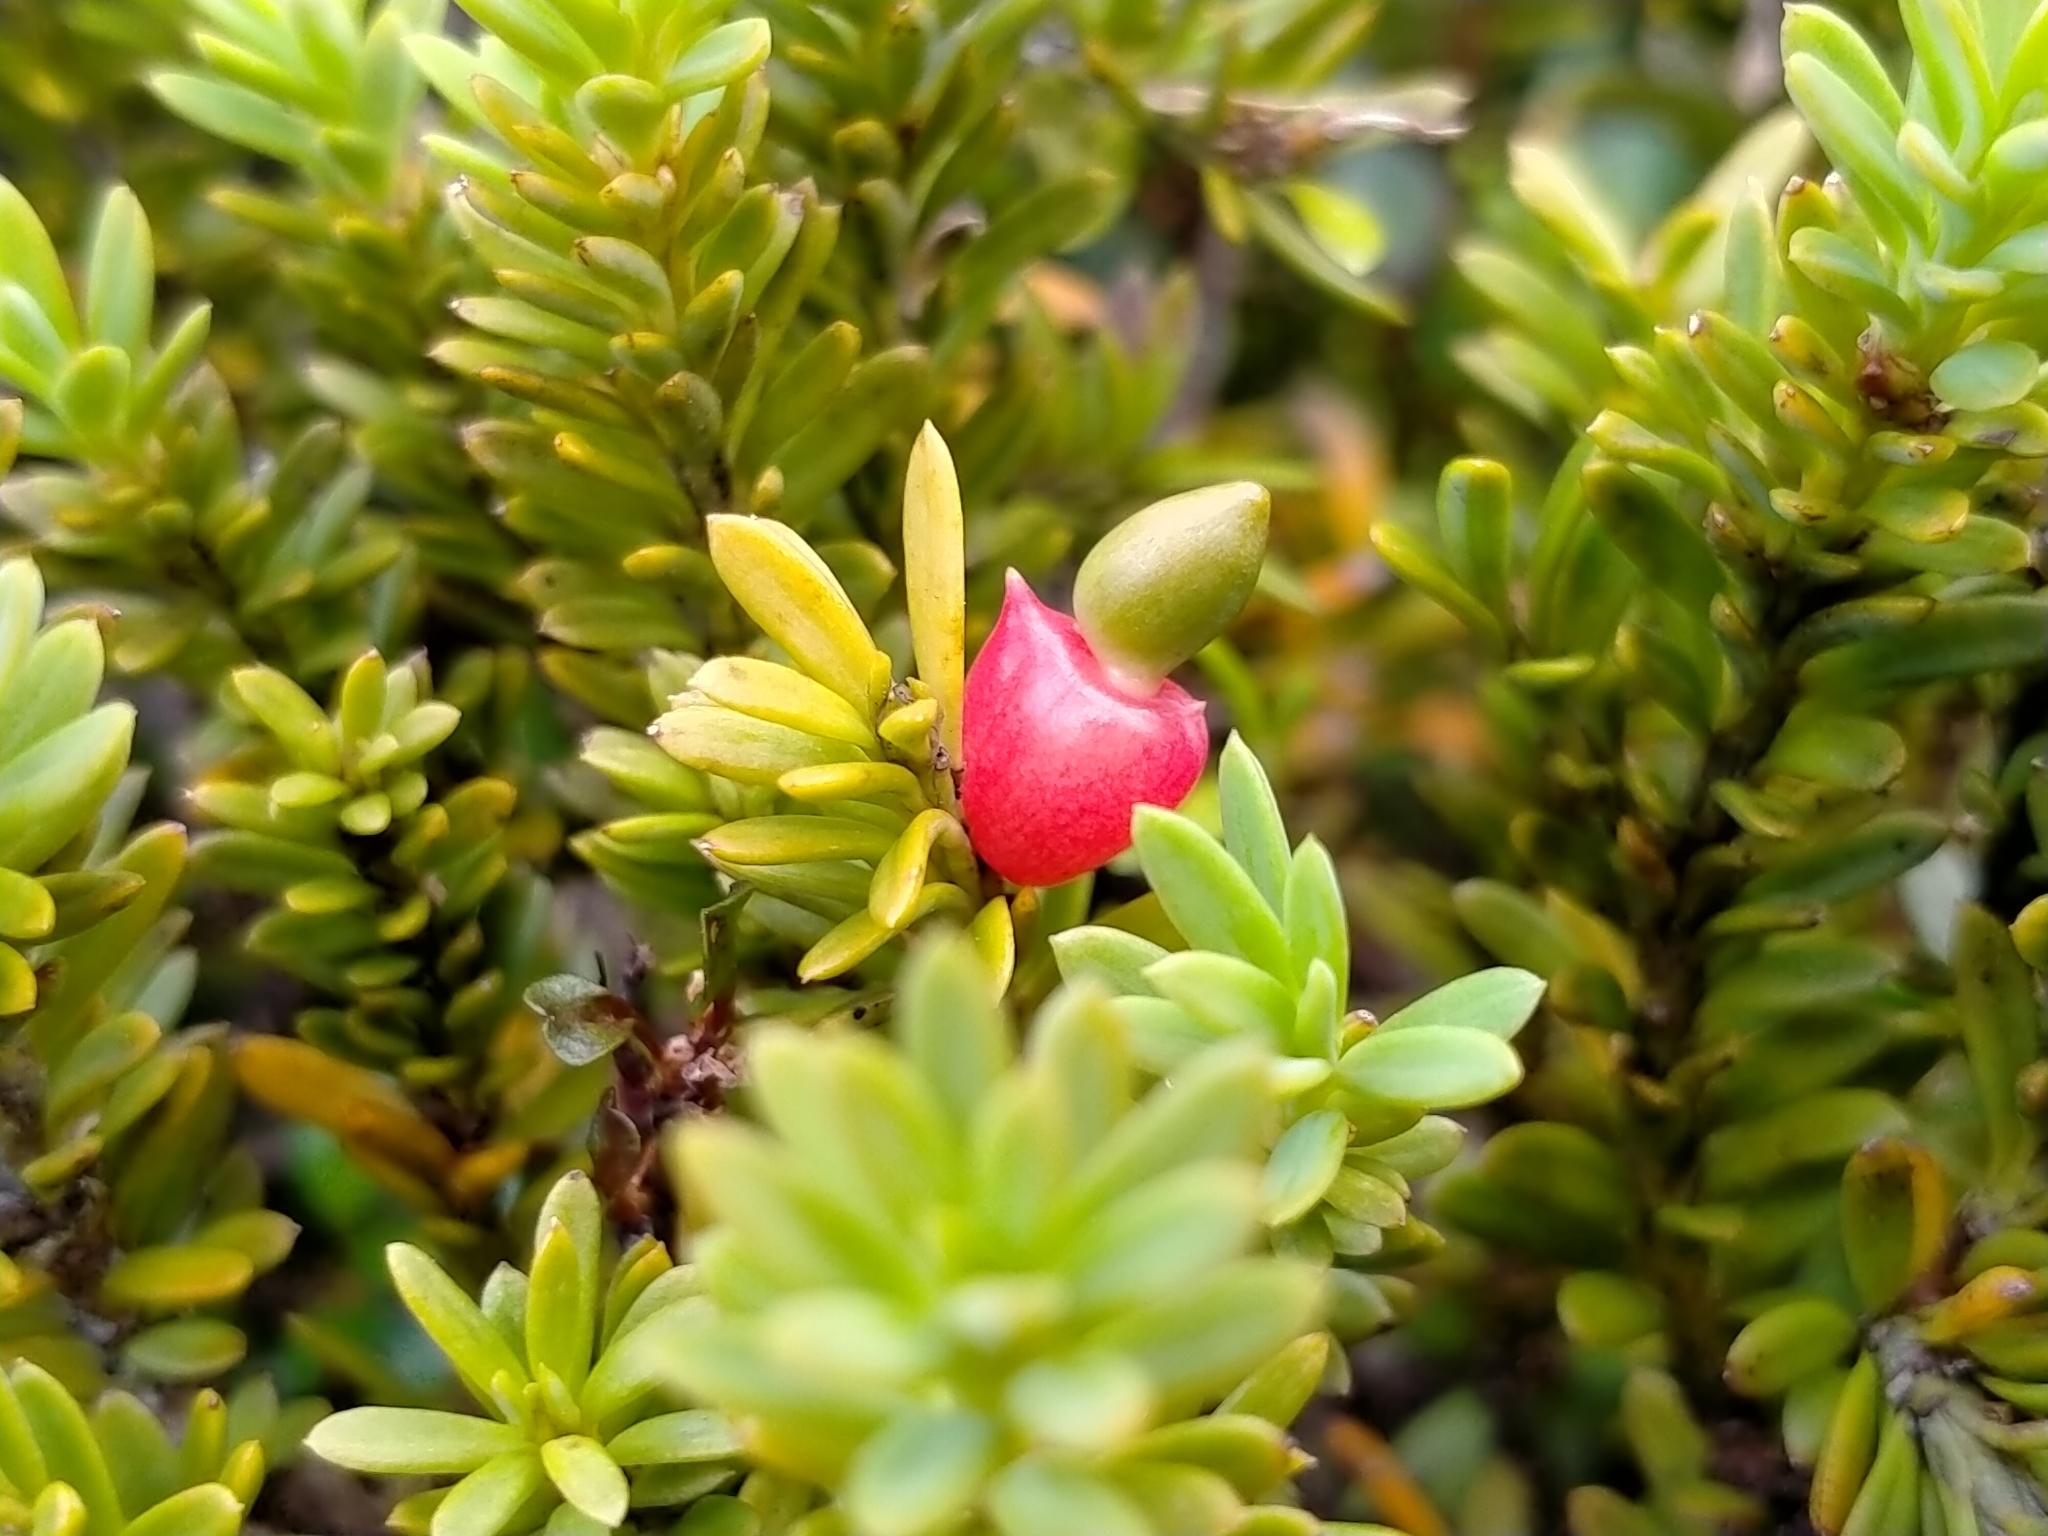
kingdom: Plantae
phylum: Tracheophyta
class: Pinopsida
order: Pinales
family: Podocarpaceae
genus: Podocarpus
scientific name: Podocarpus nivalis
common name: Alpine totara
